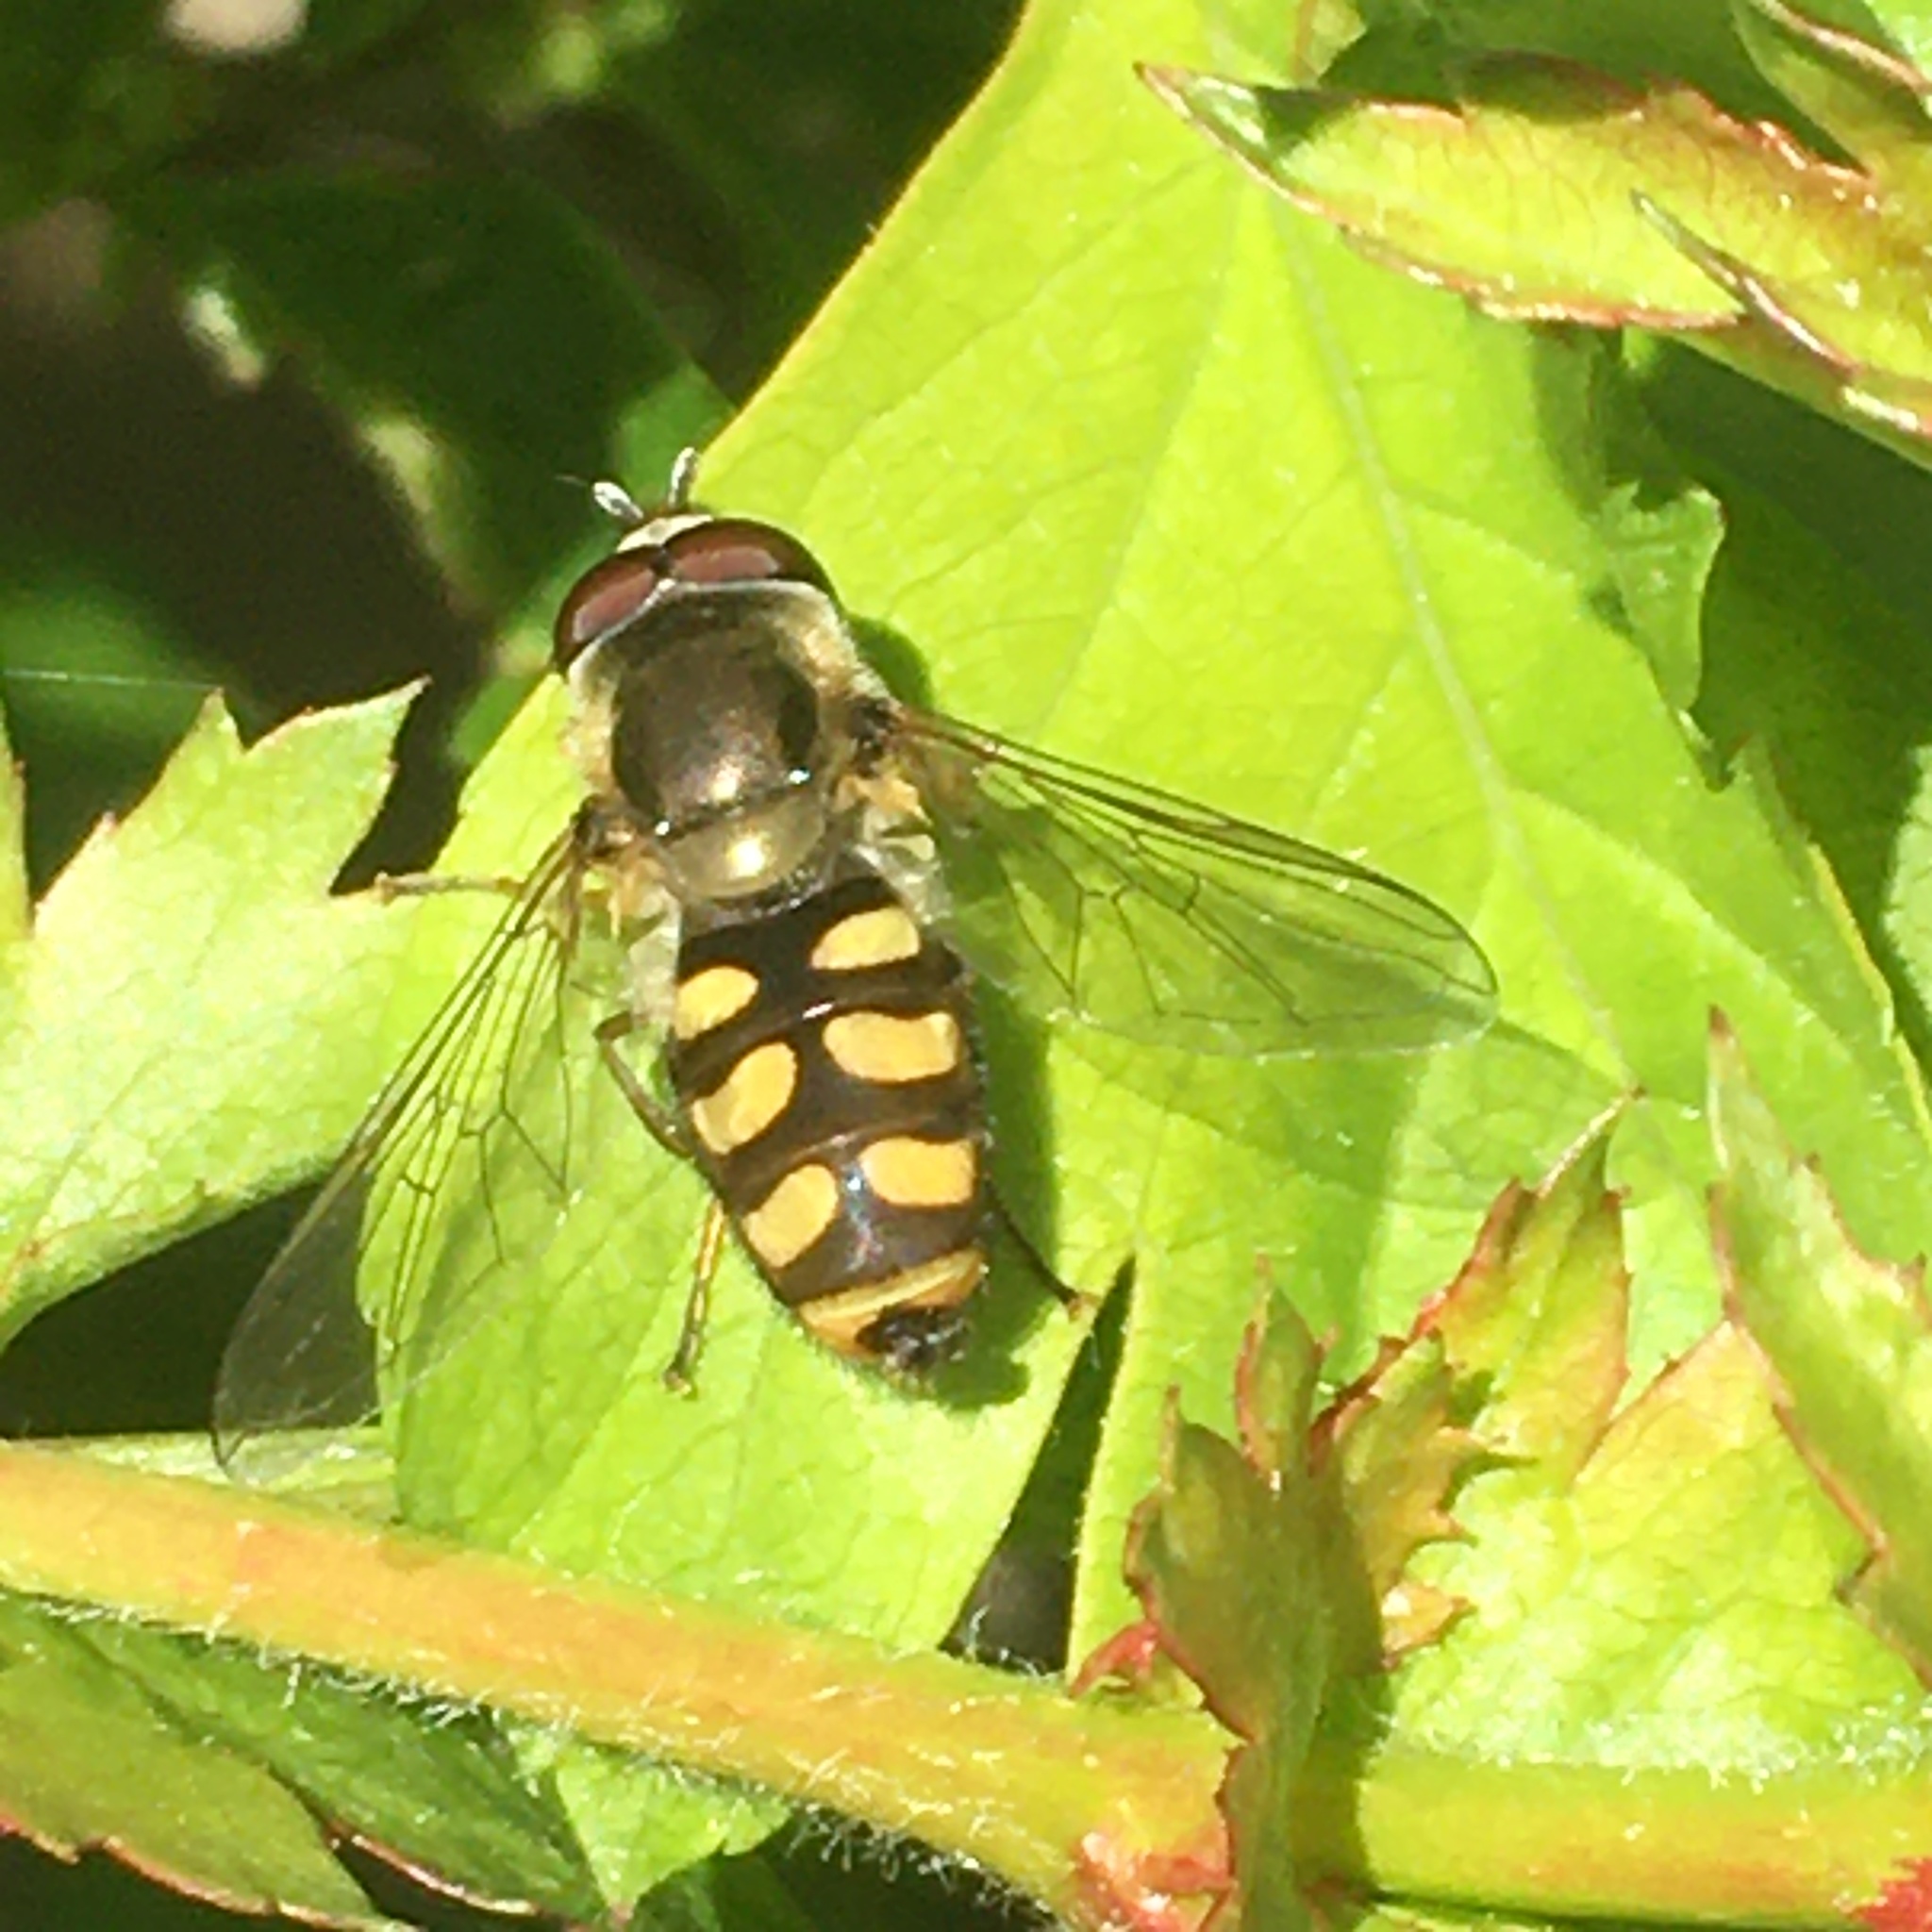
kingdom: Animalia
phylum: Arthropoda
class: Insecta
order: Diptera
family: Syrphidae
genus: Eupeodes
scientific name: Eupeodes
